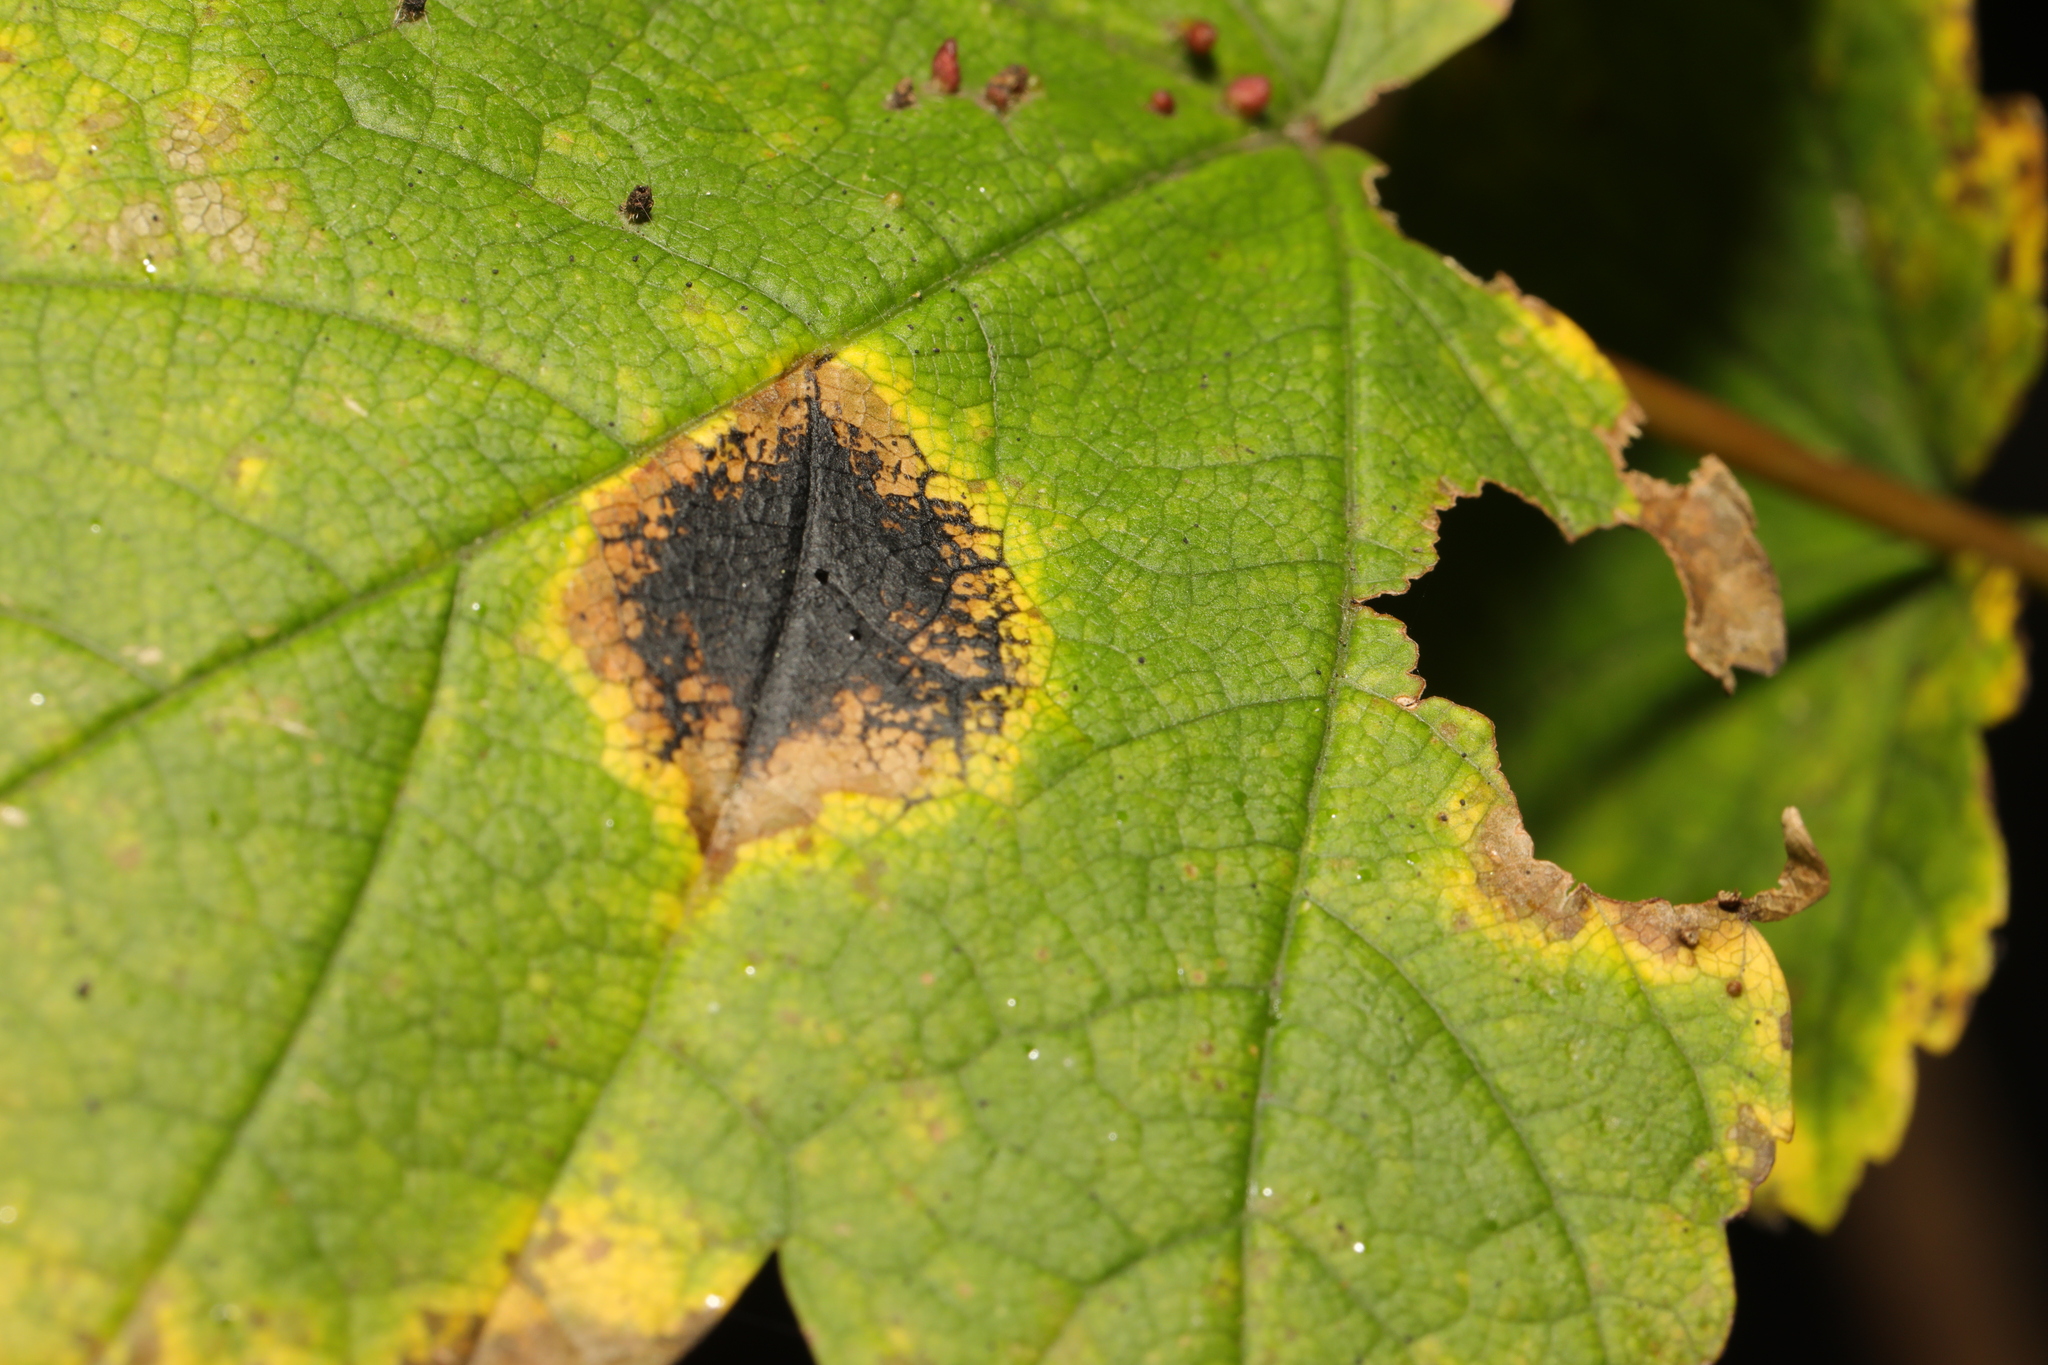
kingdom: Fungi
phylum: Ascomycota
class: Leotiomycetes
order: Rhytismatales
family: Rhytismataceae
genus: Rhytisma
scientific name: Rhytisma acerinum
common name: European tar spot
